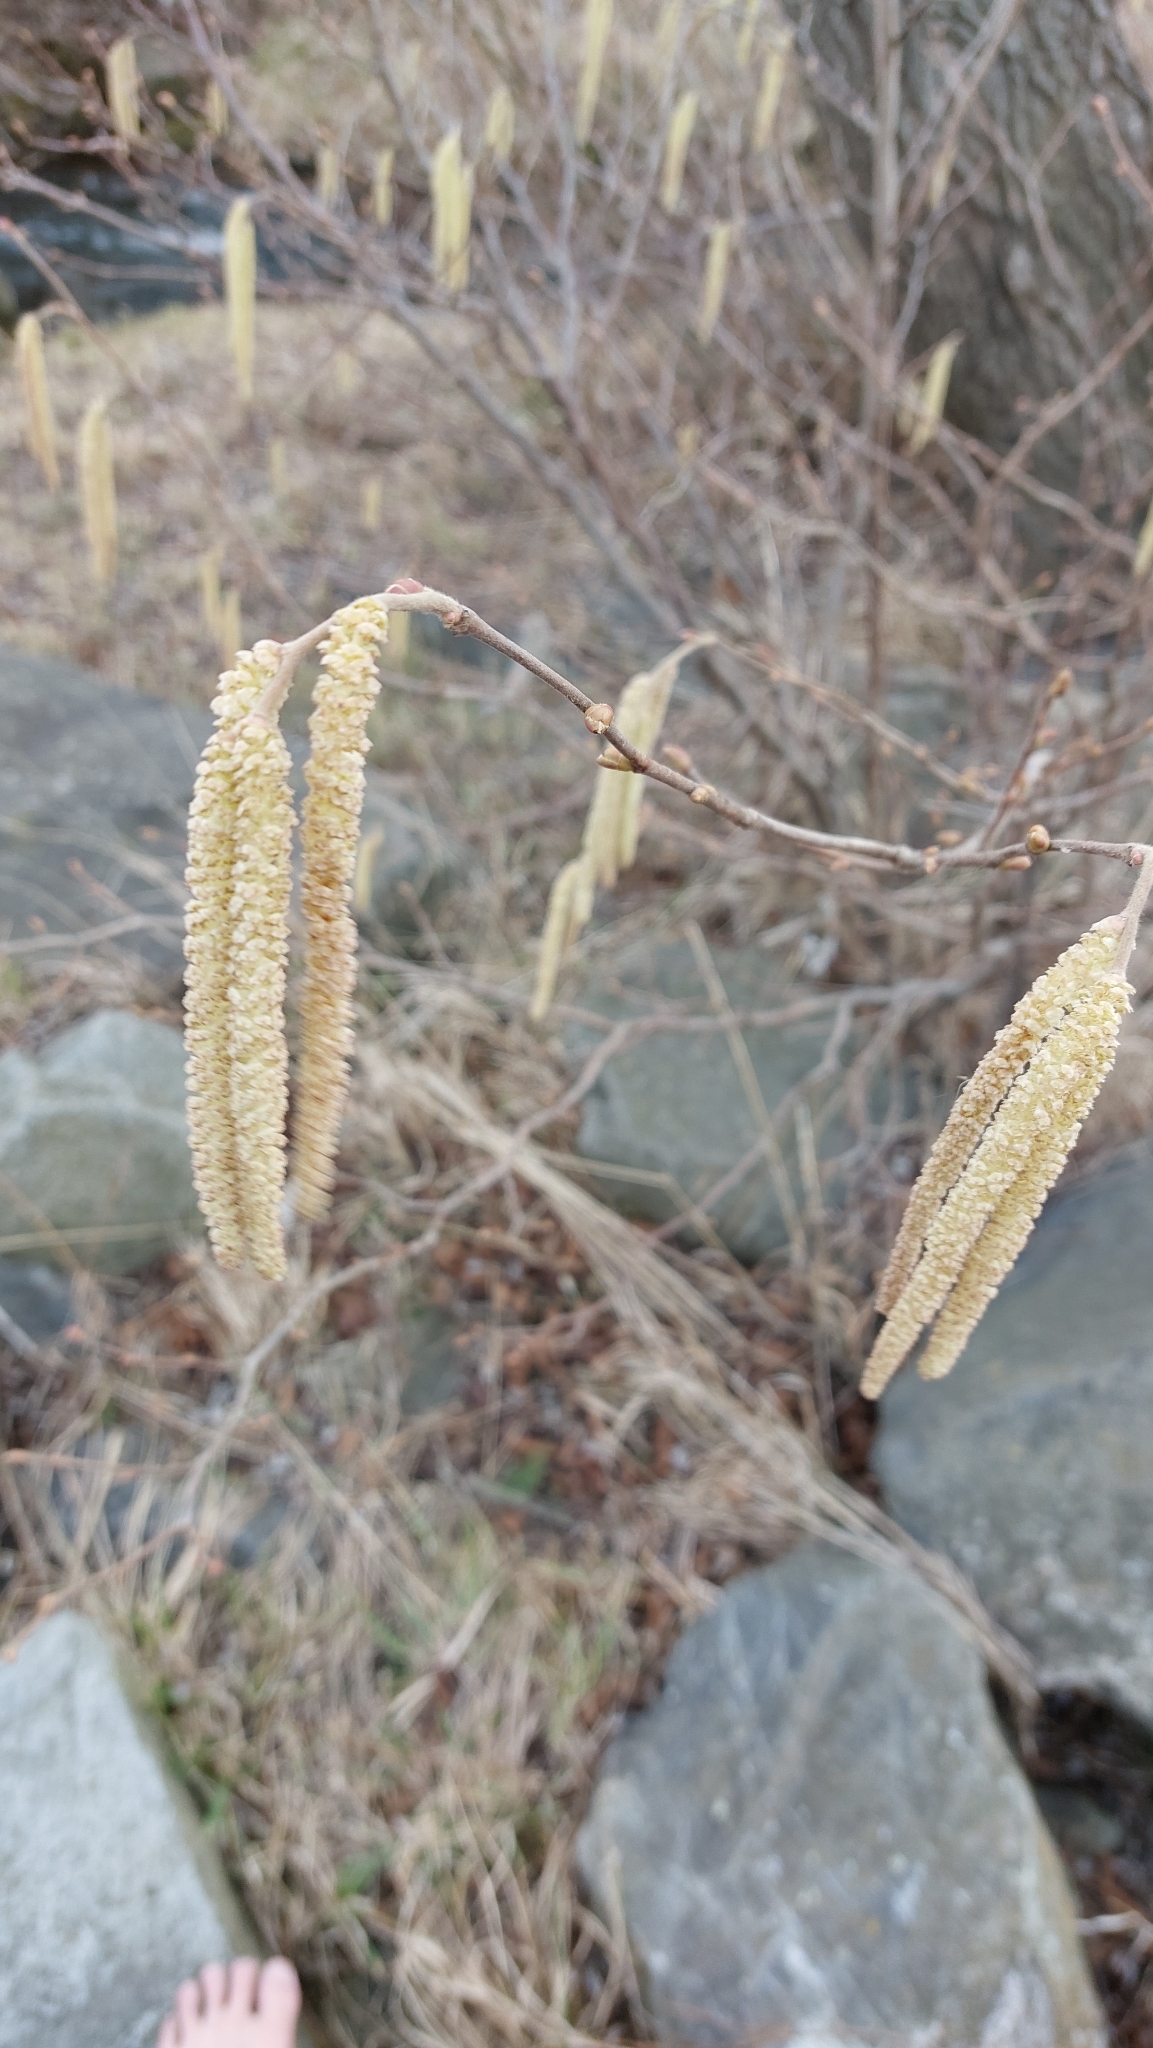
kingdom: Plantae
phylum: Tracheophyta
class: Magnoliopsida
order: Fagales
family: Betulaceae
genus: Corylus
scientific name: Corylus avellana
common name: European hazel
